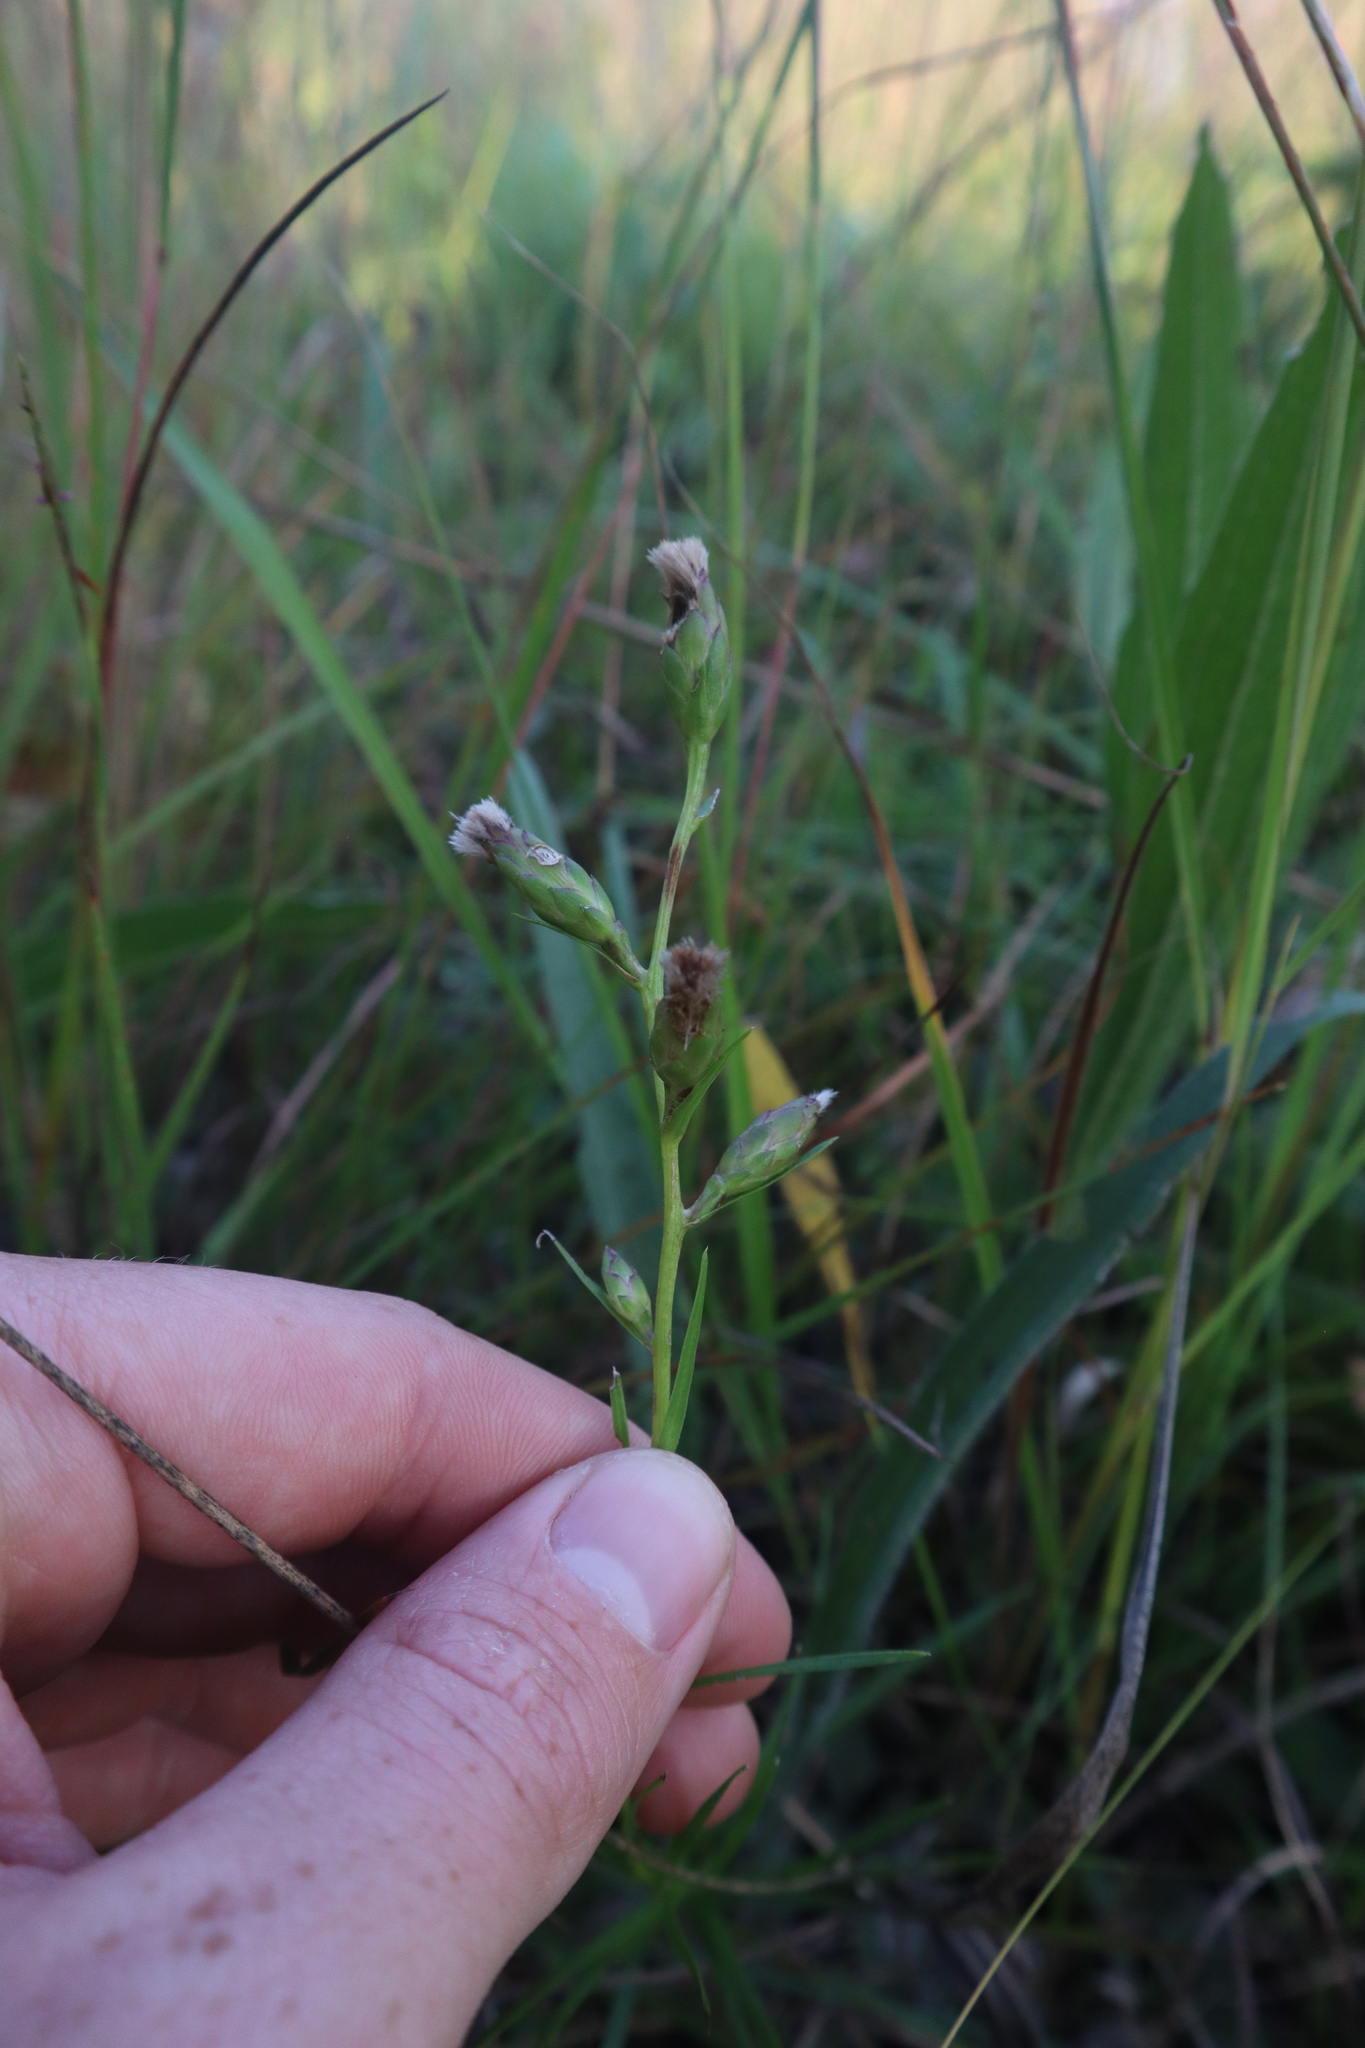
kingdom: Plantae
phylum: Tracheophyta
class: Magnoliopsida
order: Asterales
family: Asteraceae
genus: Liatris
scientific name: Liatris cylindracea
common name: Few-head blazingstar
